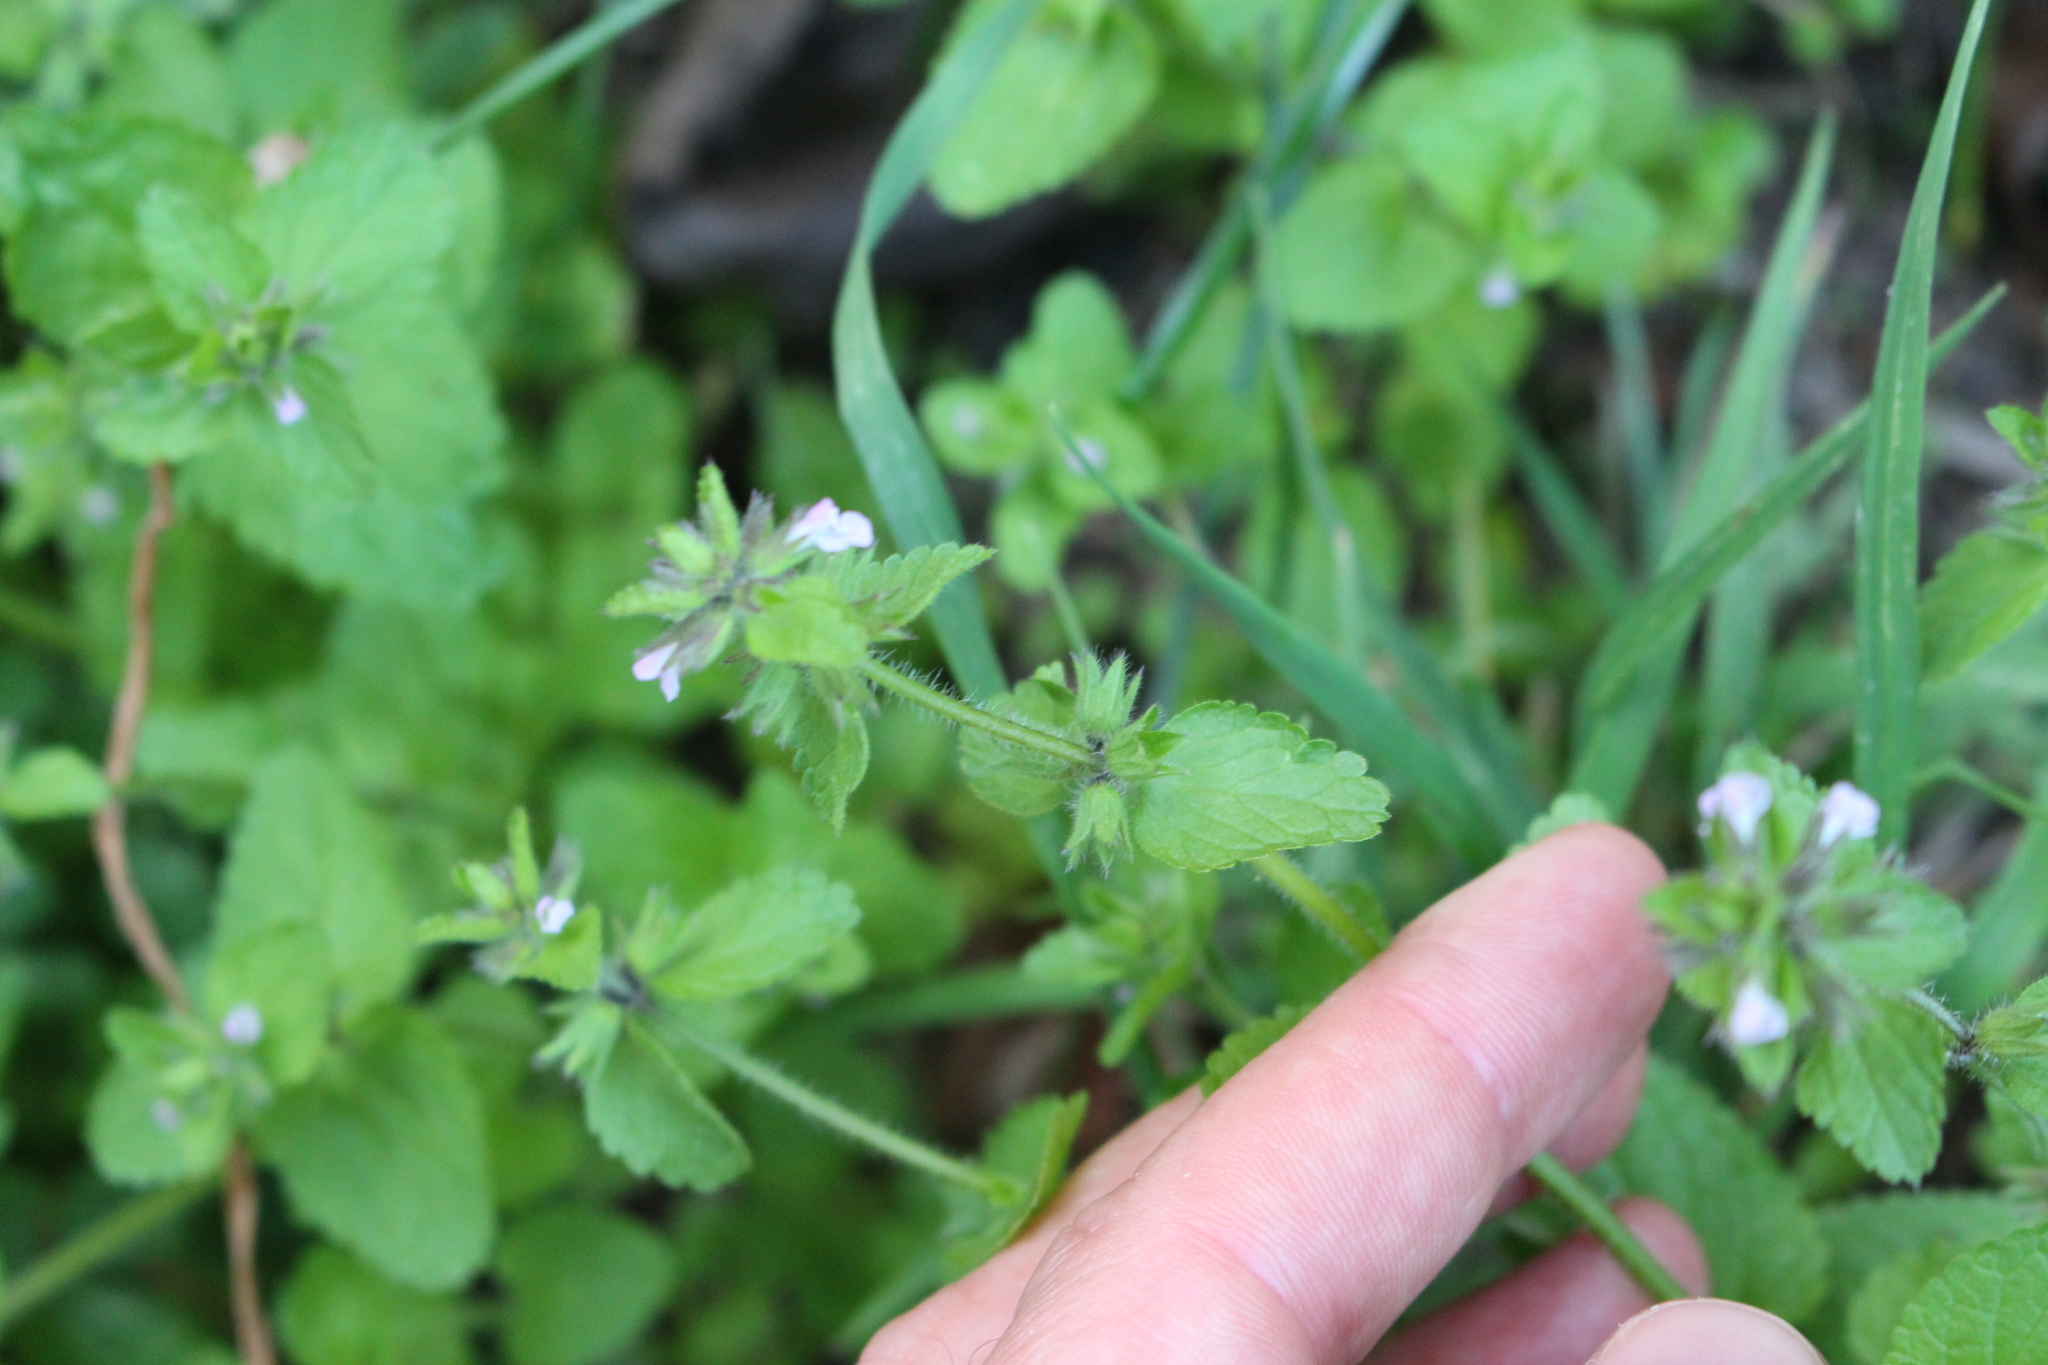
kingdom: Plantae
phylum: Tracheophyta
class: Magnoliopsida
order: Lamiales
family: Lamiaceae
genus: Stachys
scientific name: Stachys arvensis
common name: Field woundwort
